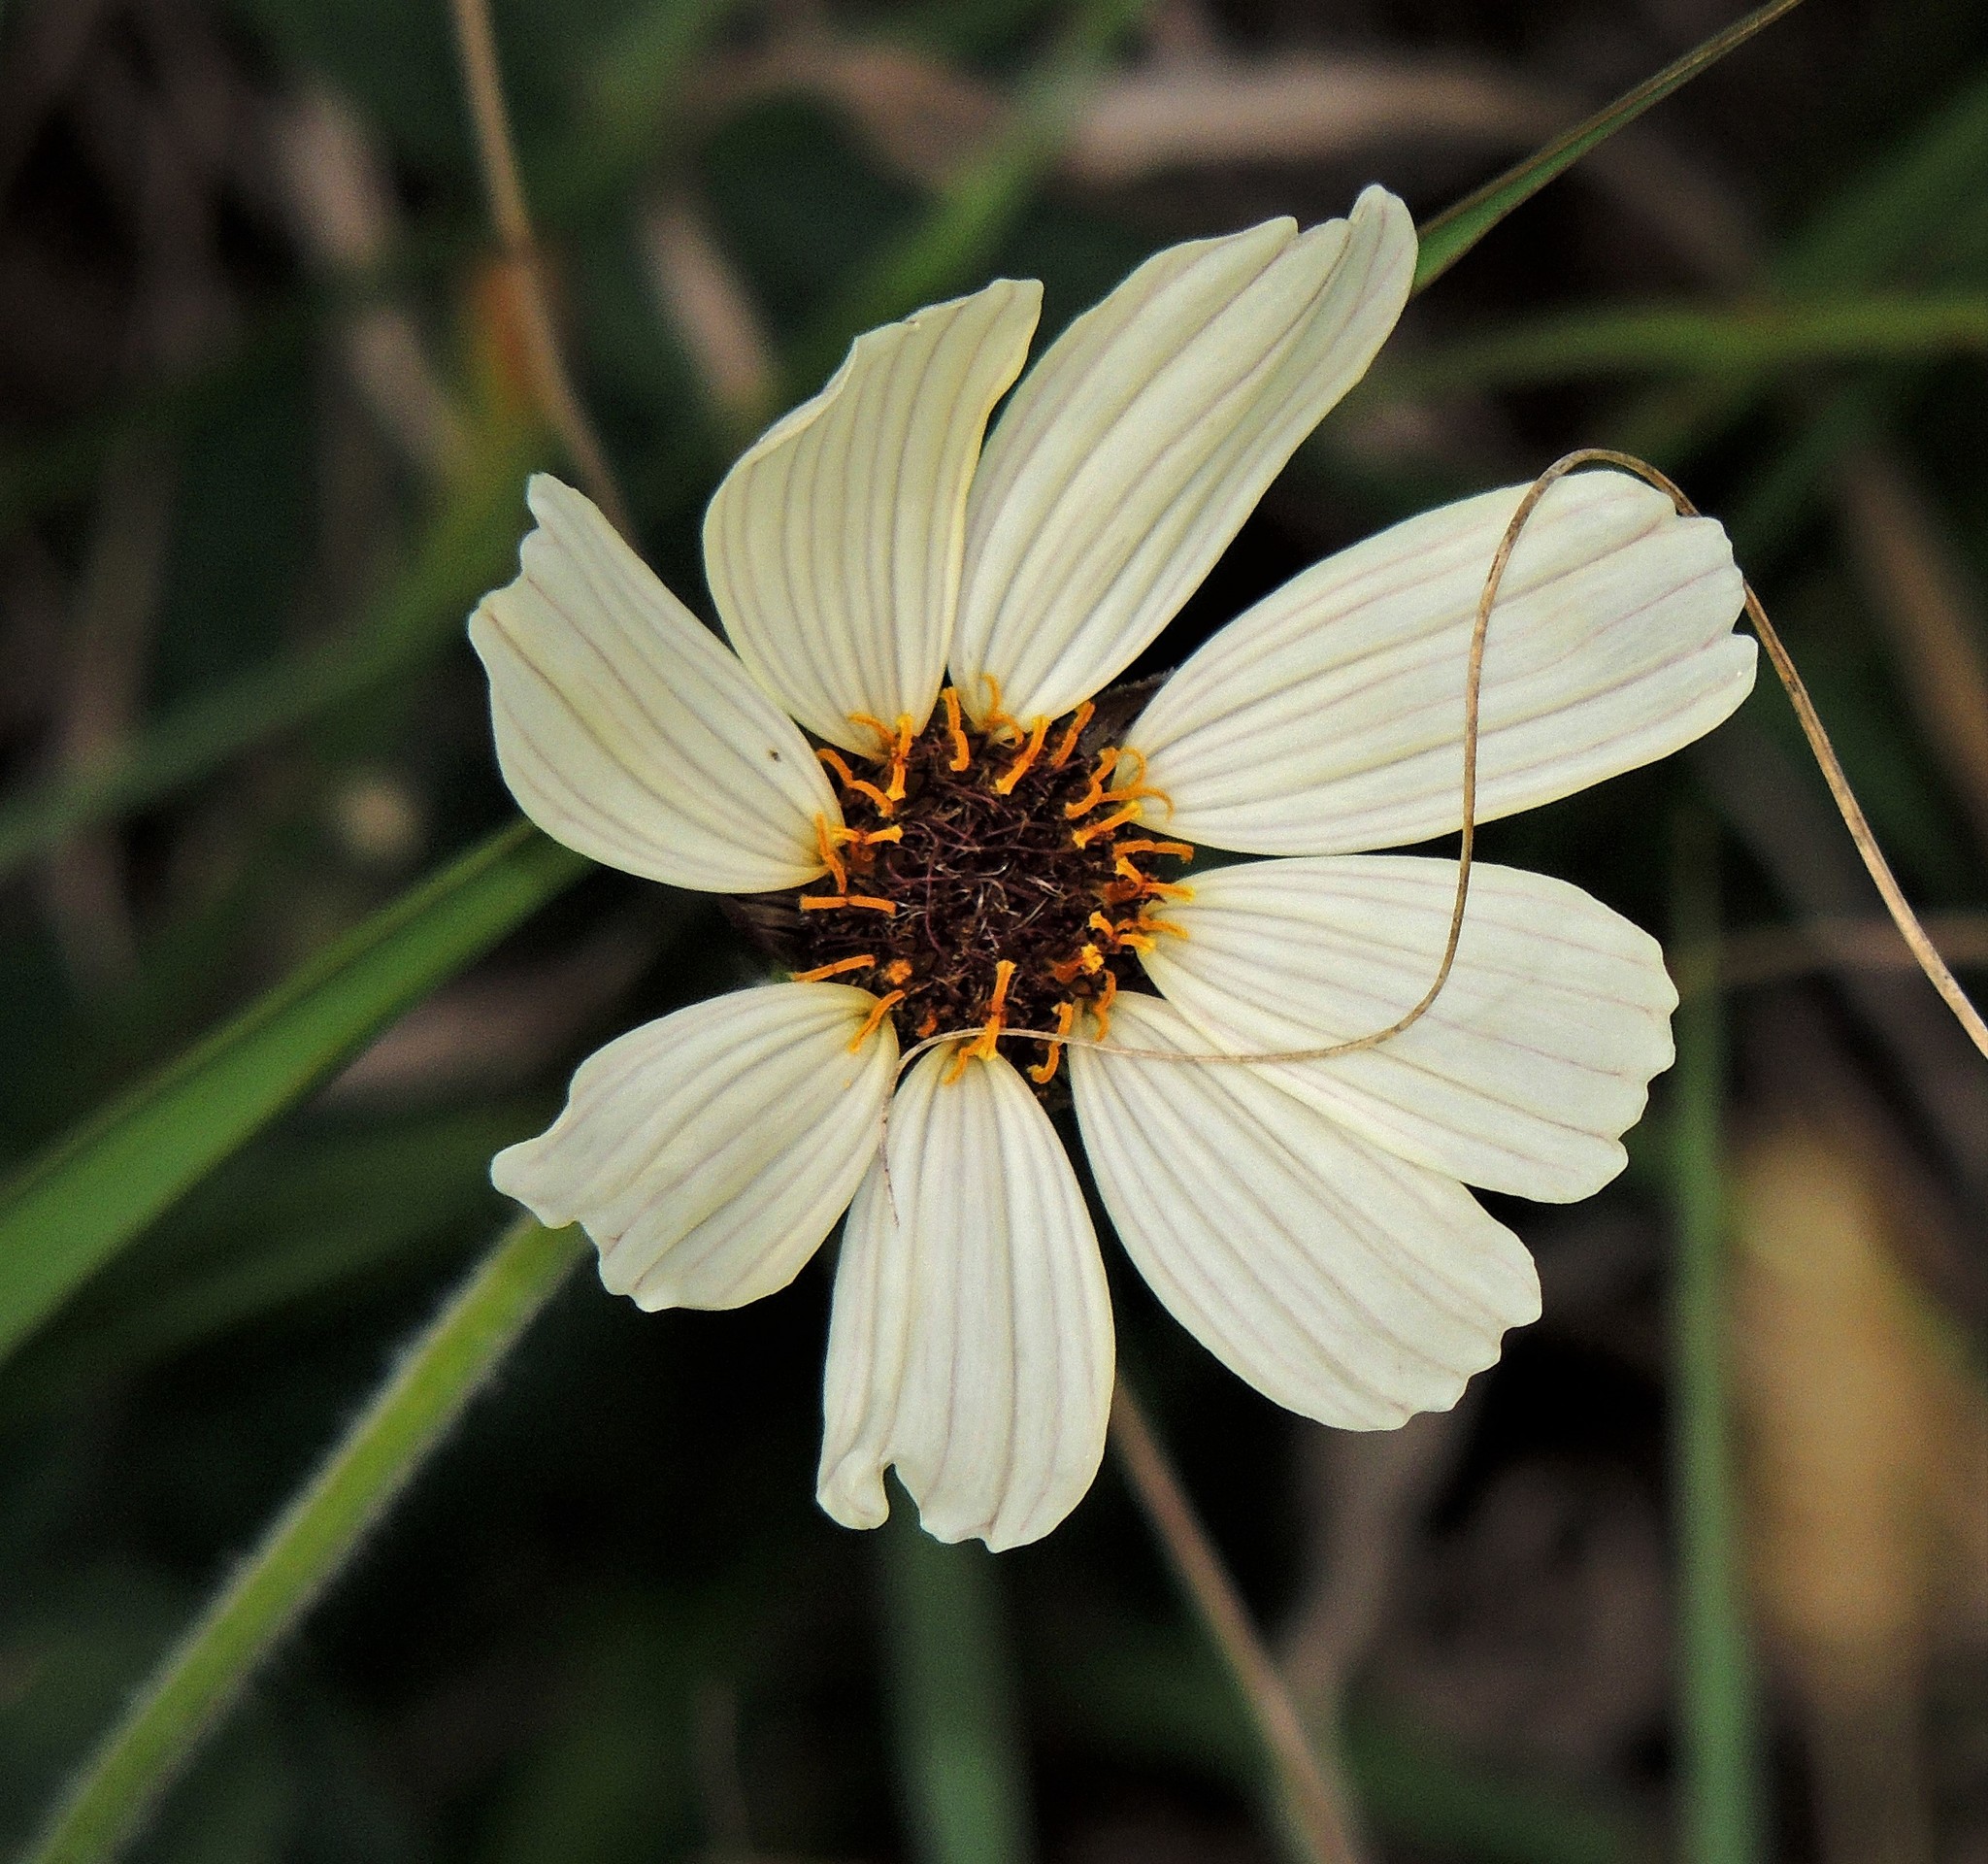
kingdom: Plantae
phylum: Tracheophyta
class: Magnoliopsida
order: Asterales
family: Asteraceae
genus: Calea
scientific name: Calea paraguayensis
